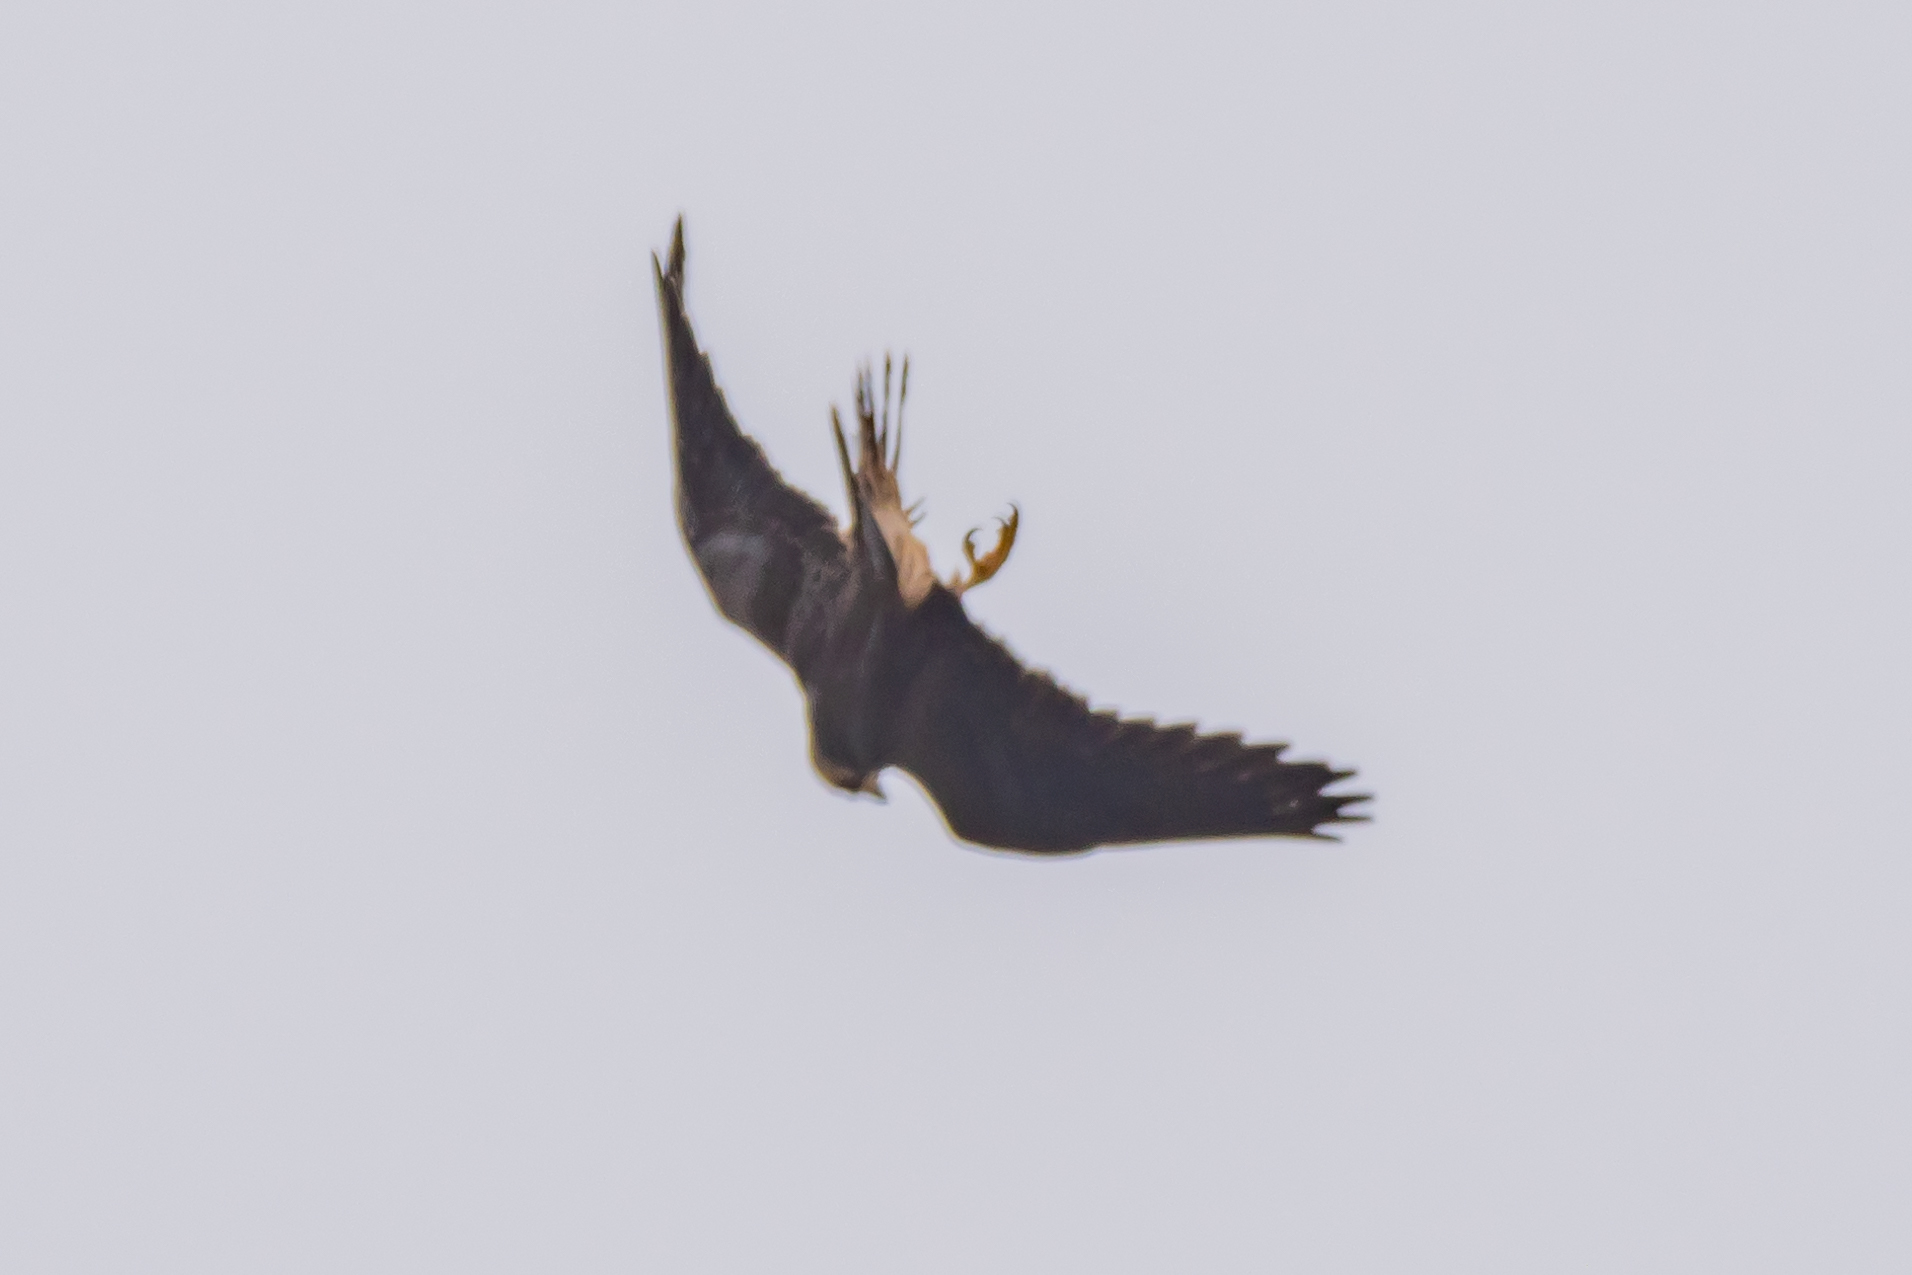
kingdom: Animalia
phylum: Chordata
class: Aves
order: Falconiformes
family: Falconidae
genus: Falco
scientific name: Falco peregrinus
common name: Peregrine falcon
